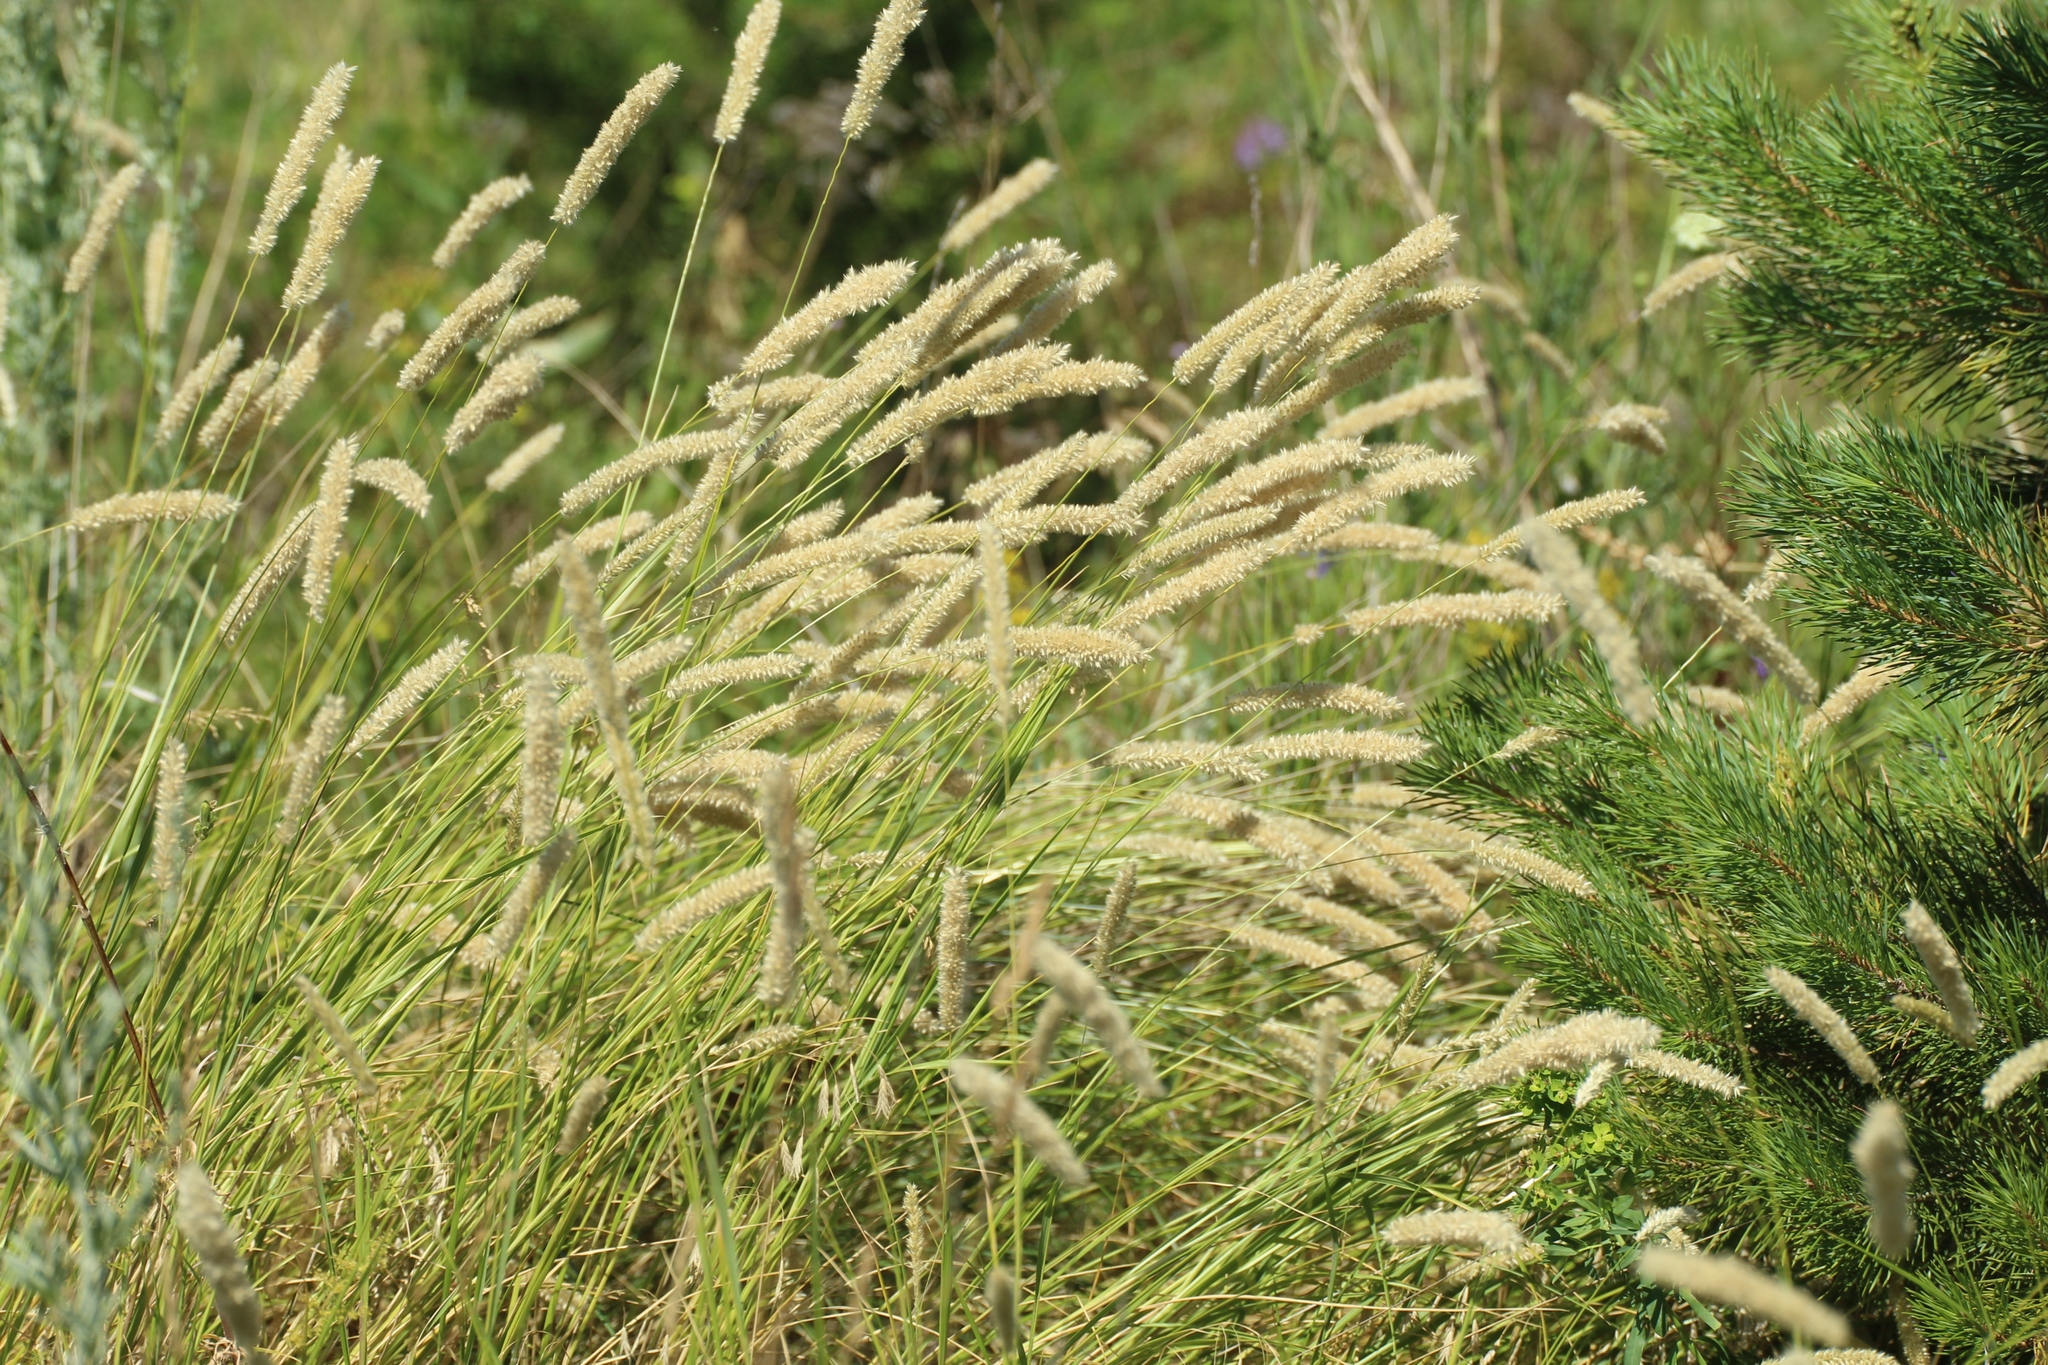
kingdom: Plantae
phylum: Tracheophyta
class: Liliopsida
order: Poales
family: Poaceae
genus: Melica
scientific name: Melica altissima
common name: Siberian melicgrass
